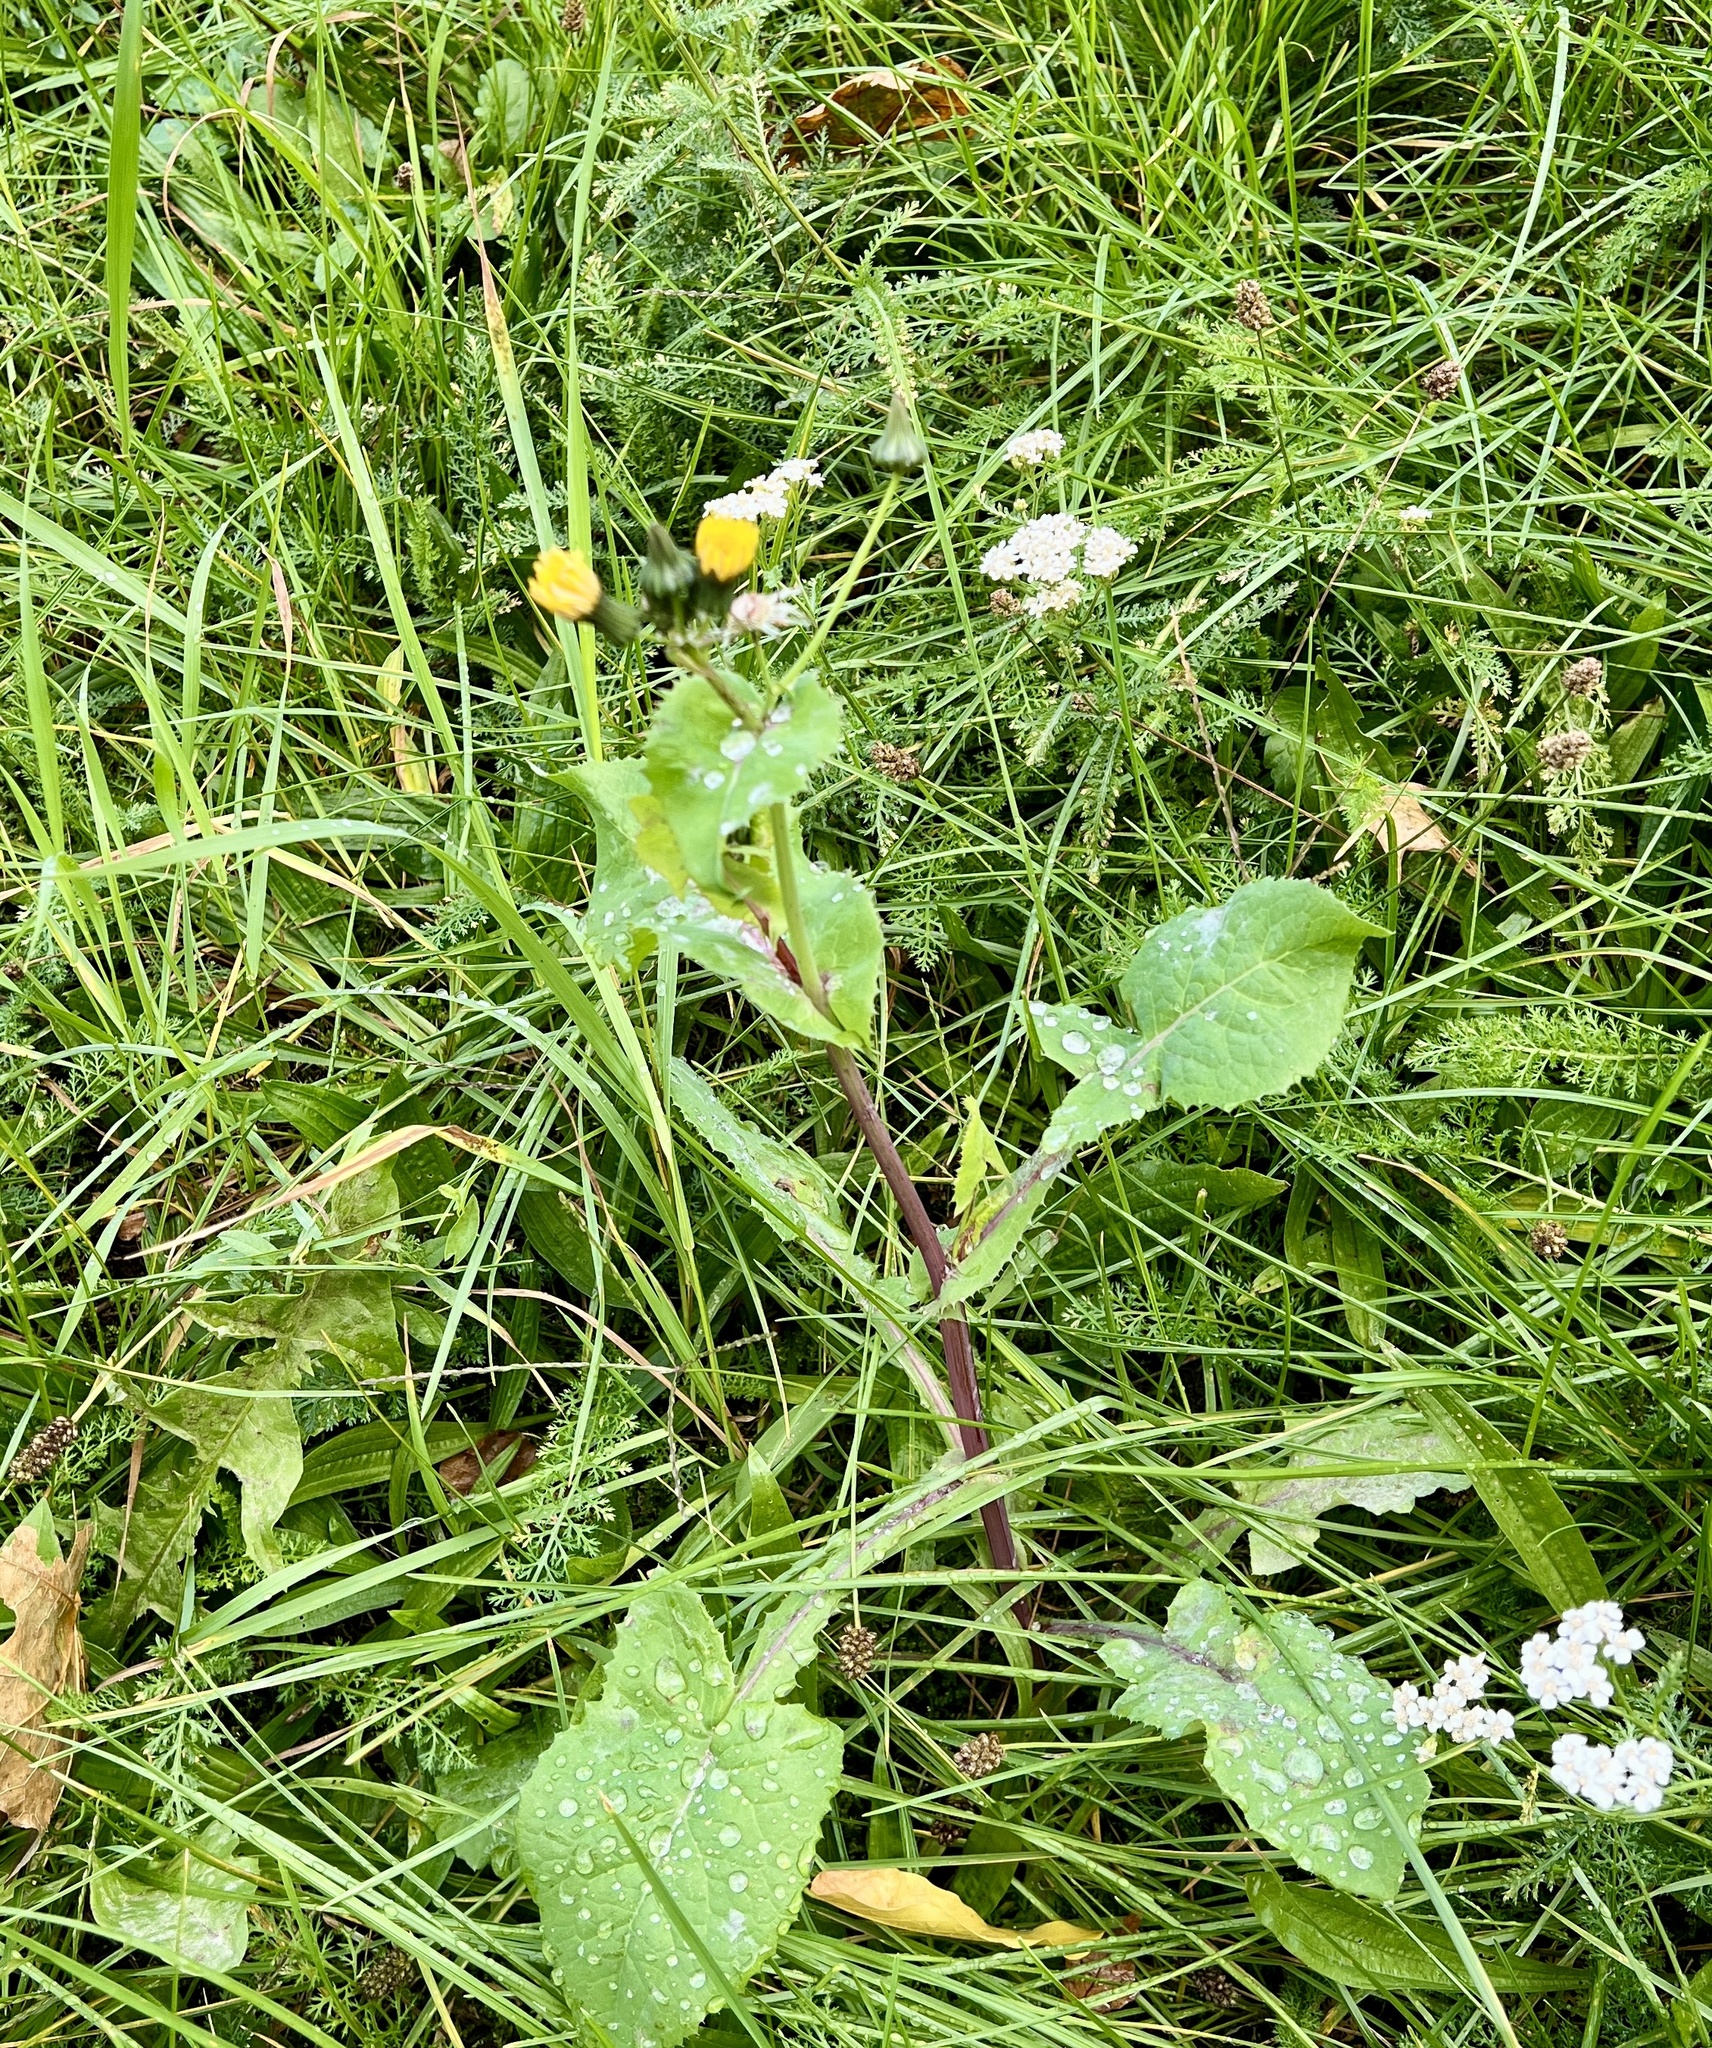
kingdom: Plantae
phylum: Tracheophyta
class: Magnoliopsida
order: Asterales
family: Asteraceae
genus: Sonchus
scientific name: Sonchus oleraceus
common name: Common sowthistle
